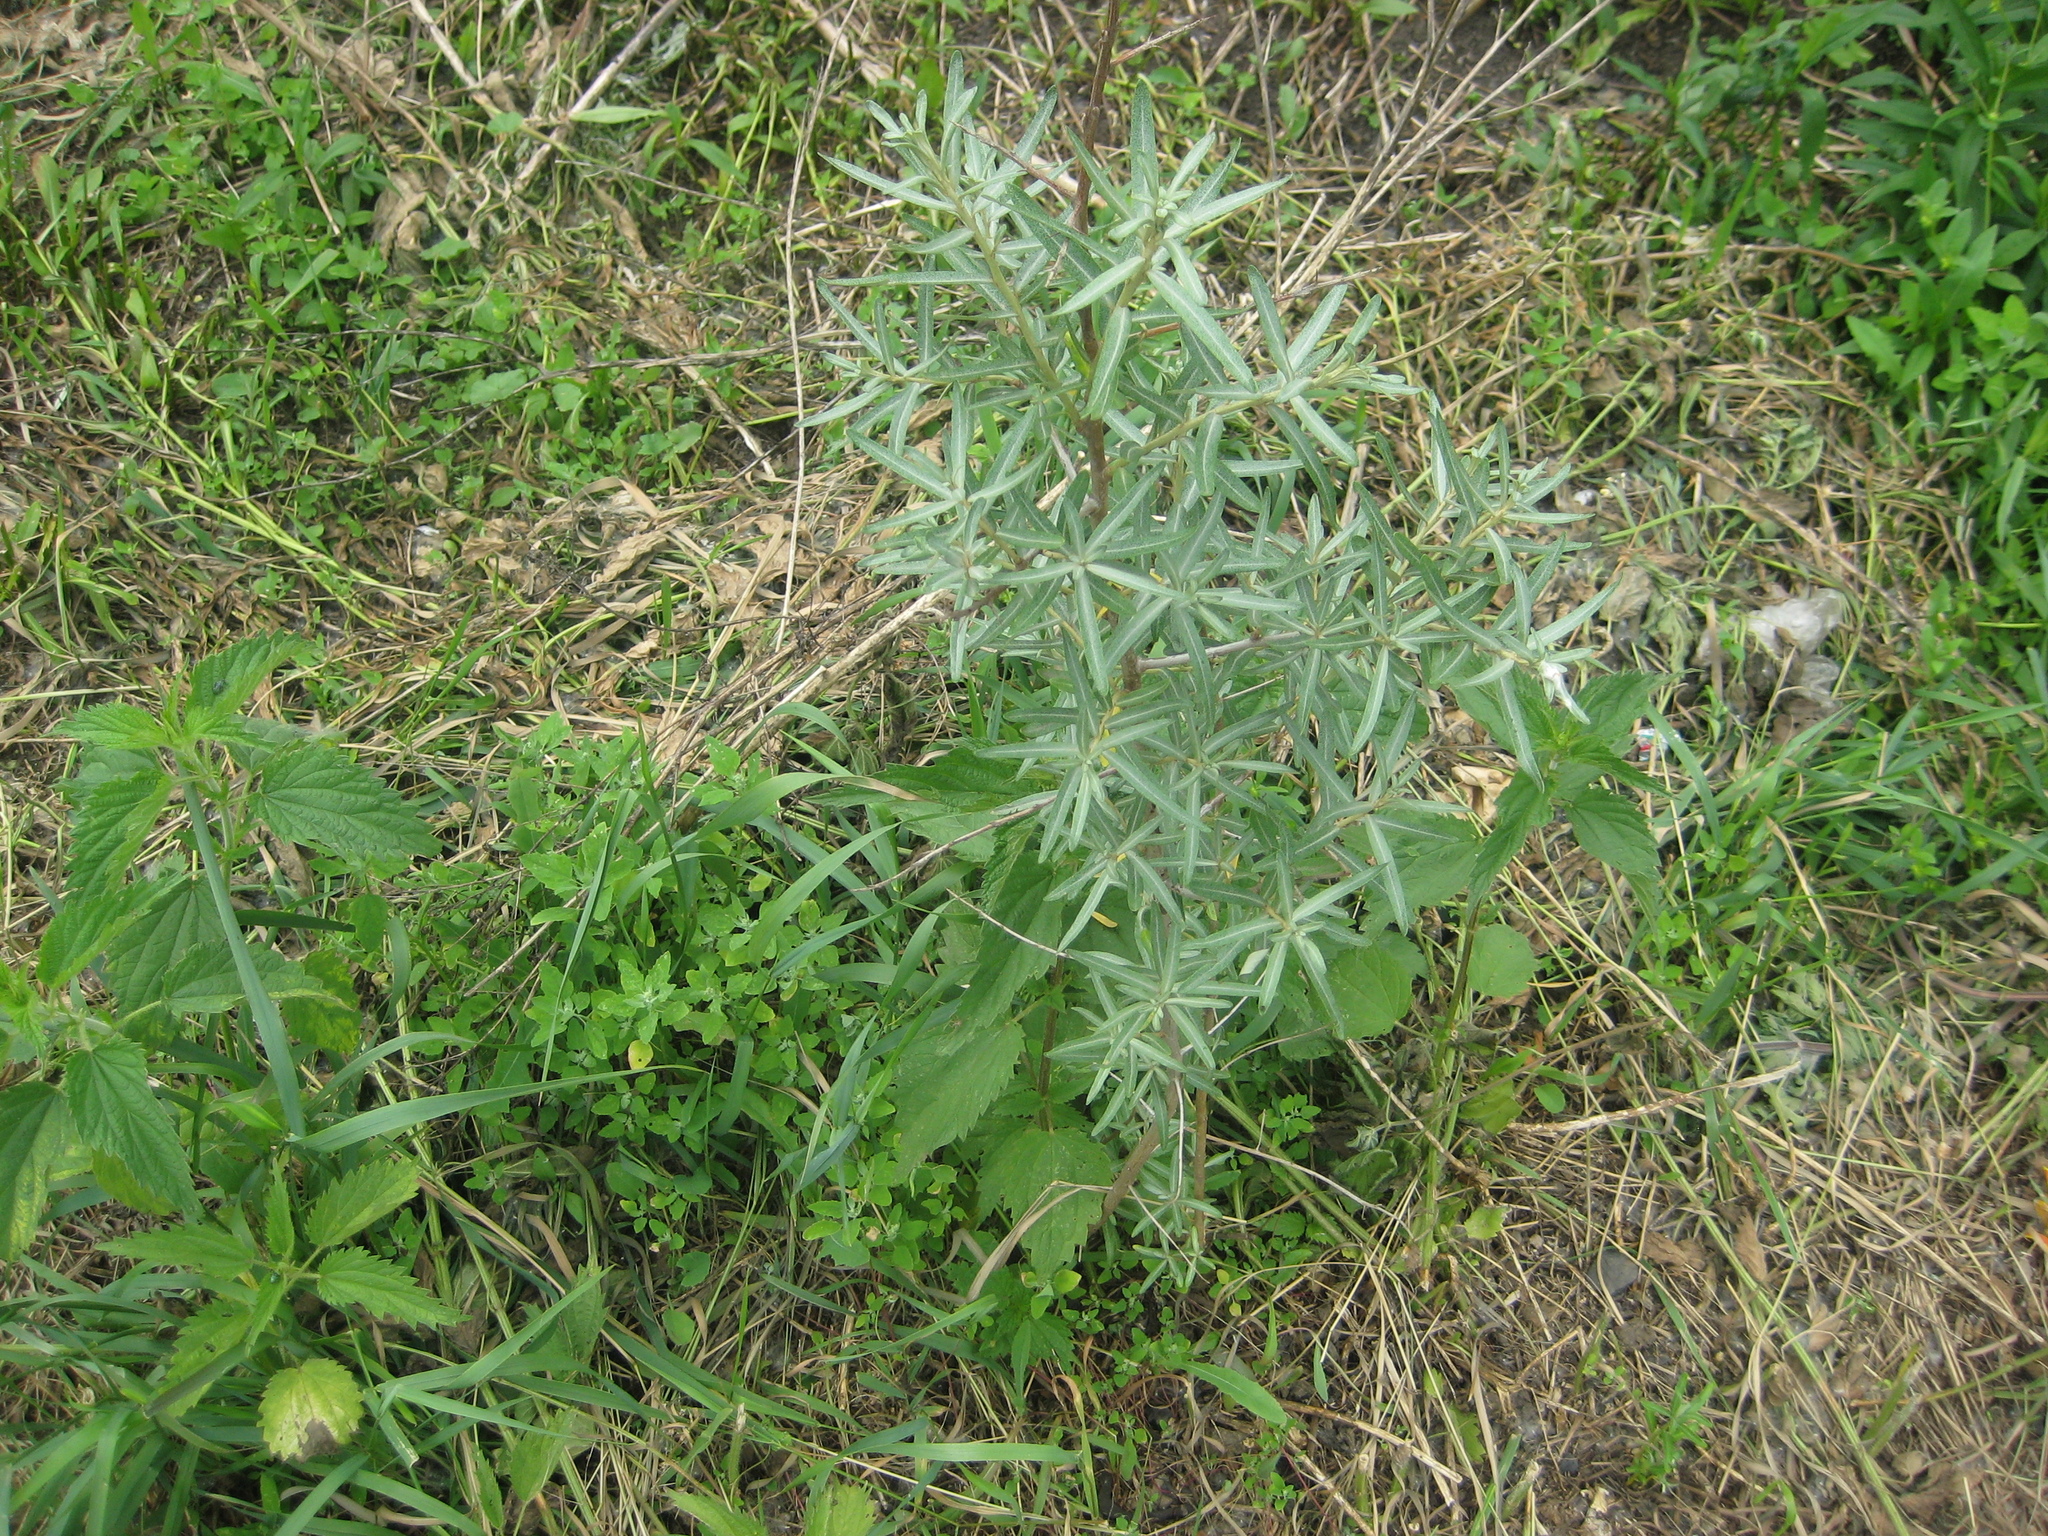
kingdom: Plantae
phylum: Tracheophyta
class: Magnoliopsida
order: Rosales
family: Elaeagnaceae
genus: Hippophae
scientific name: Hippophae rhamnoides
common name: Sea-buckthorn
